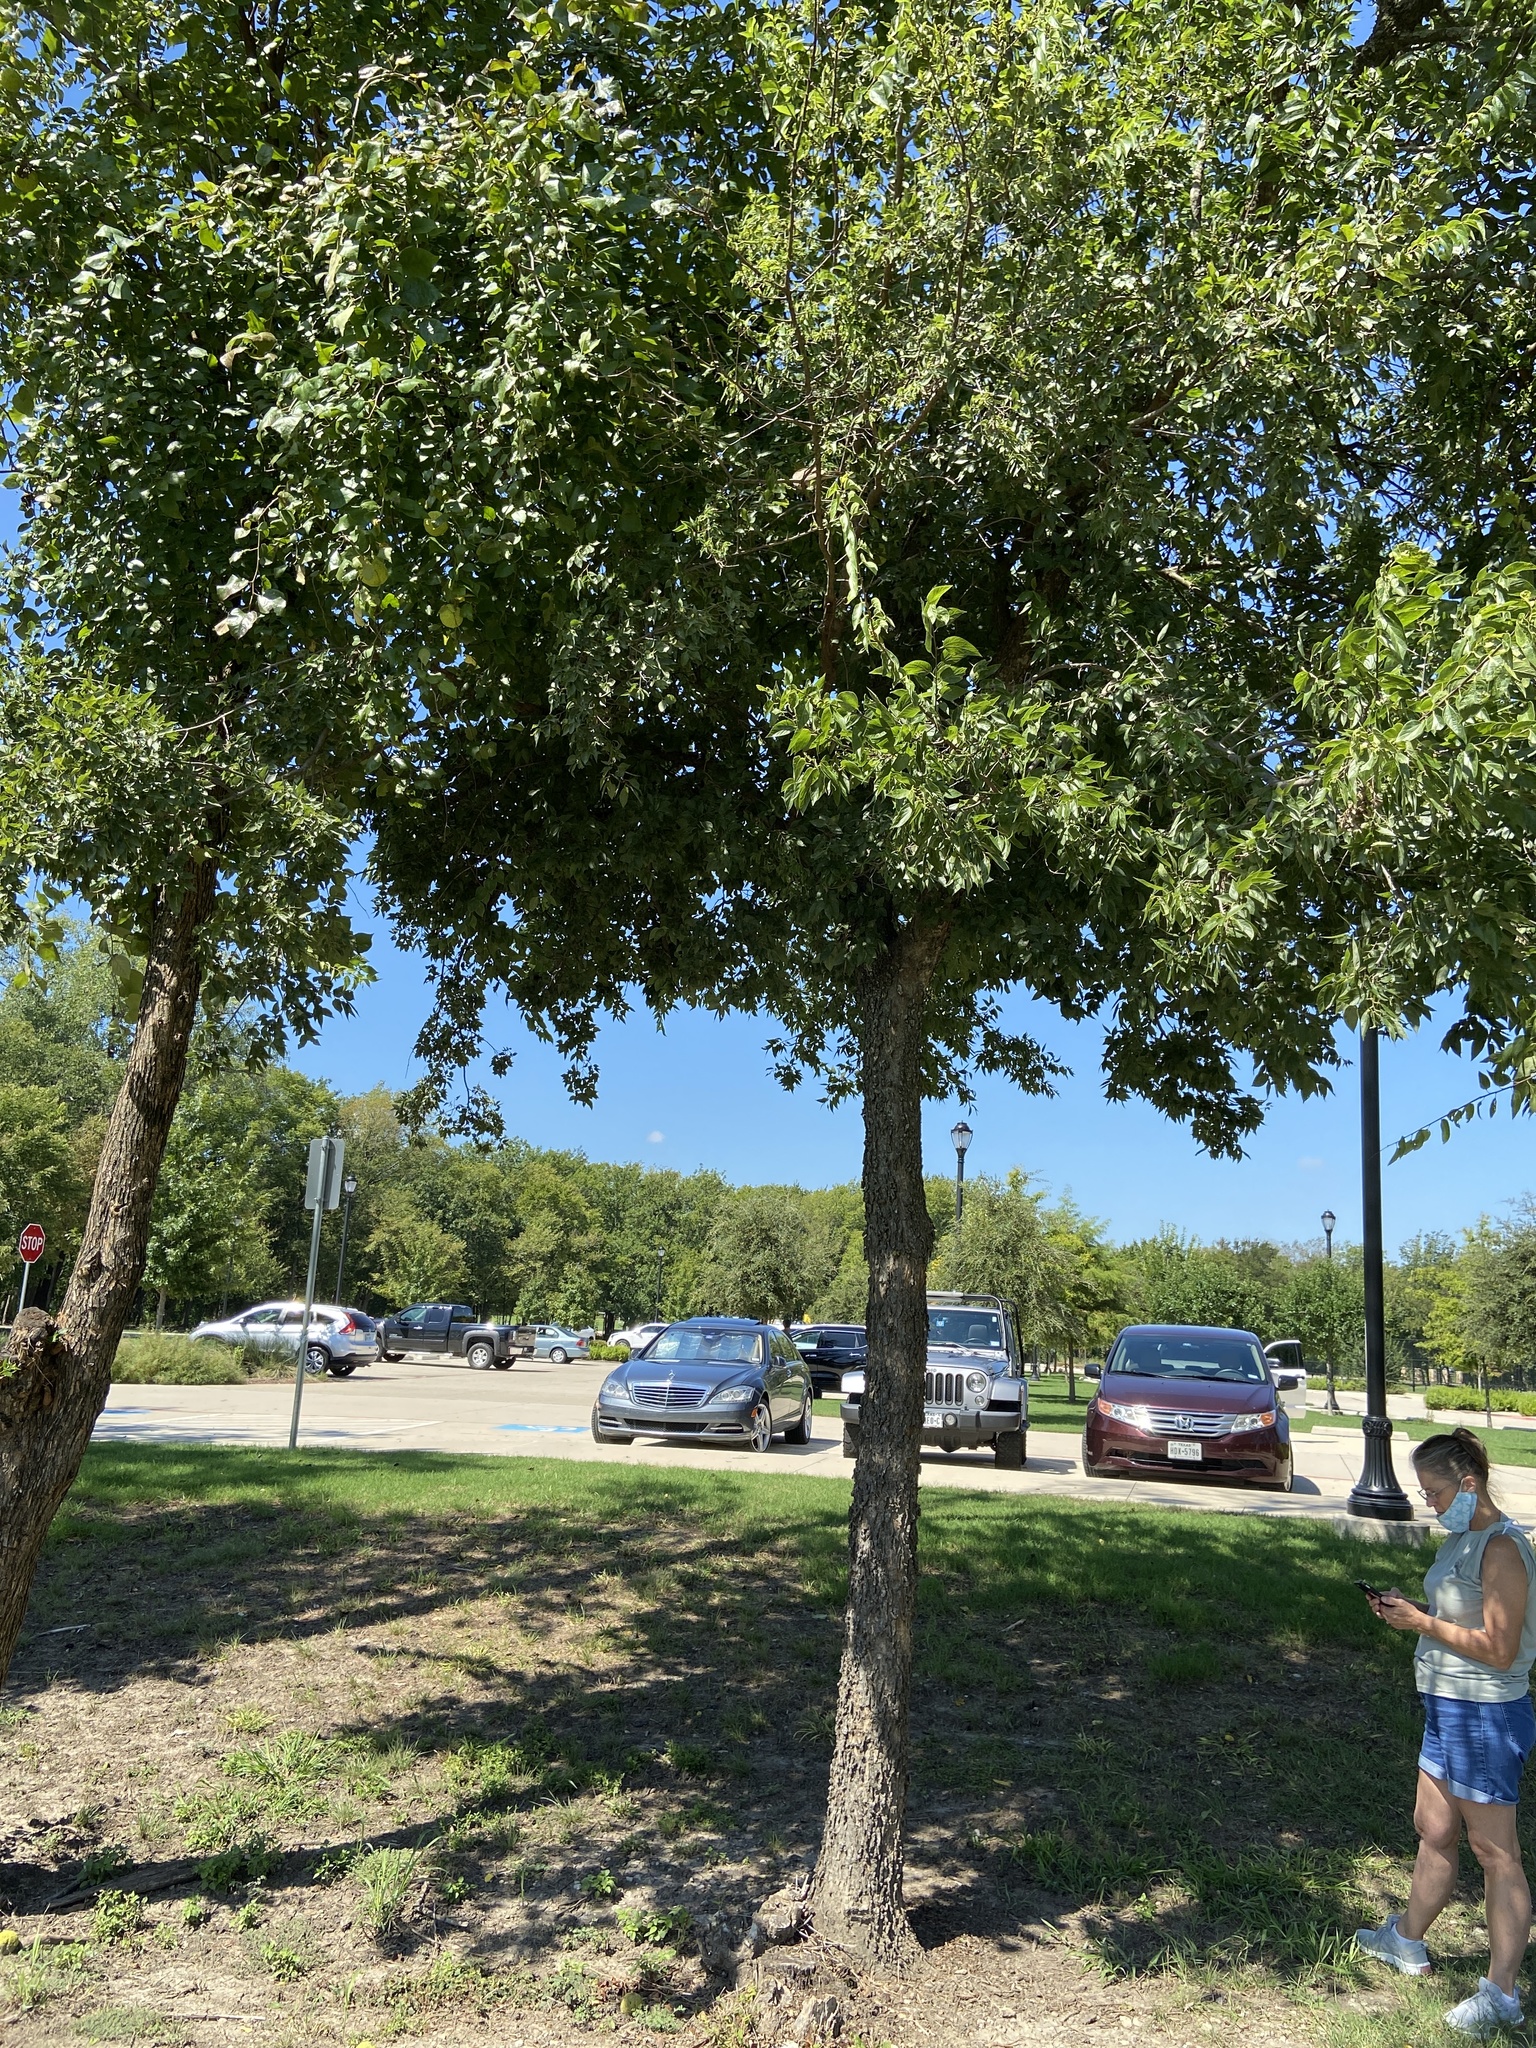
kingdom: Plantae
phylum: Tracheophyta
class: Magnoliopsida
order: Rosales
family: Cannabaceae
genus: Celtis
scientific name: Celtis laevigata
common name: Sugarberry
